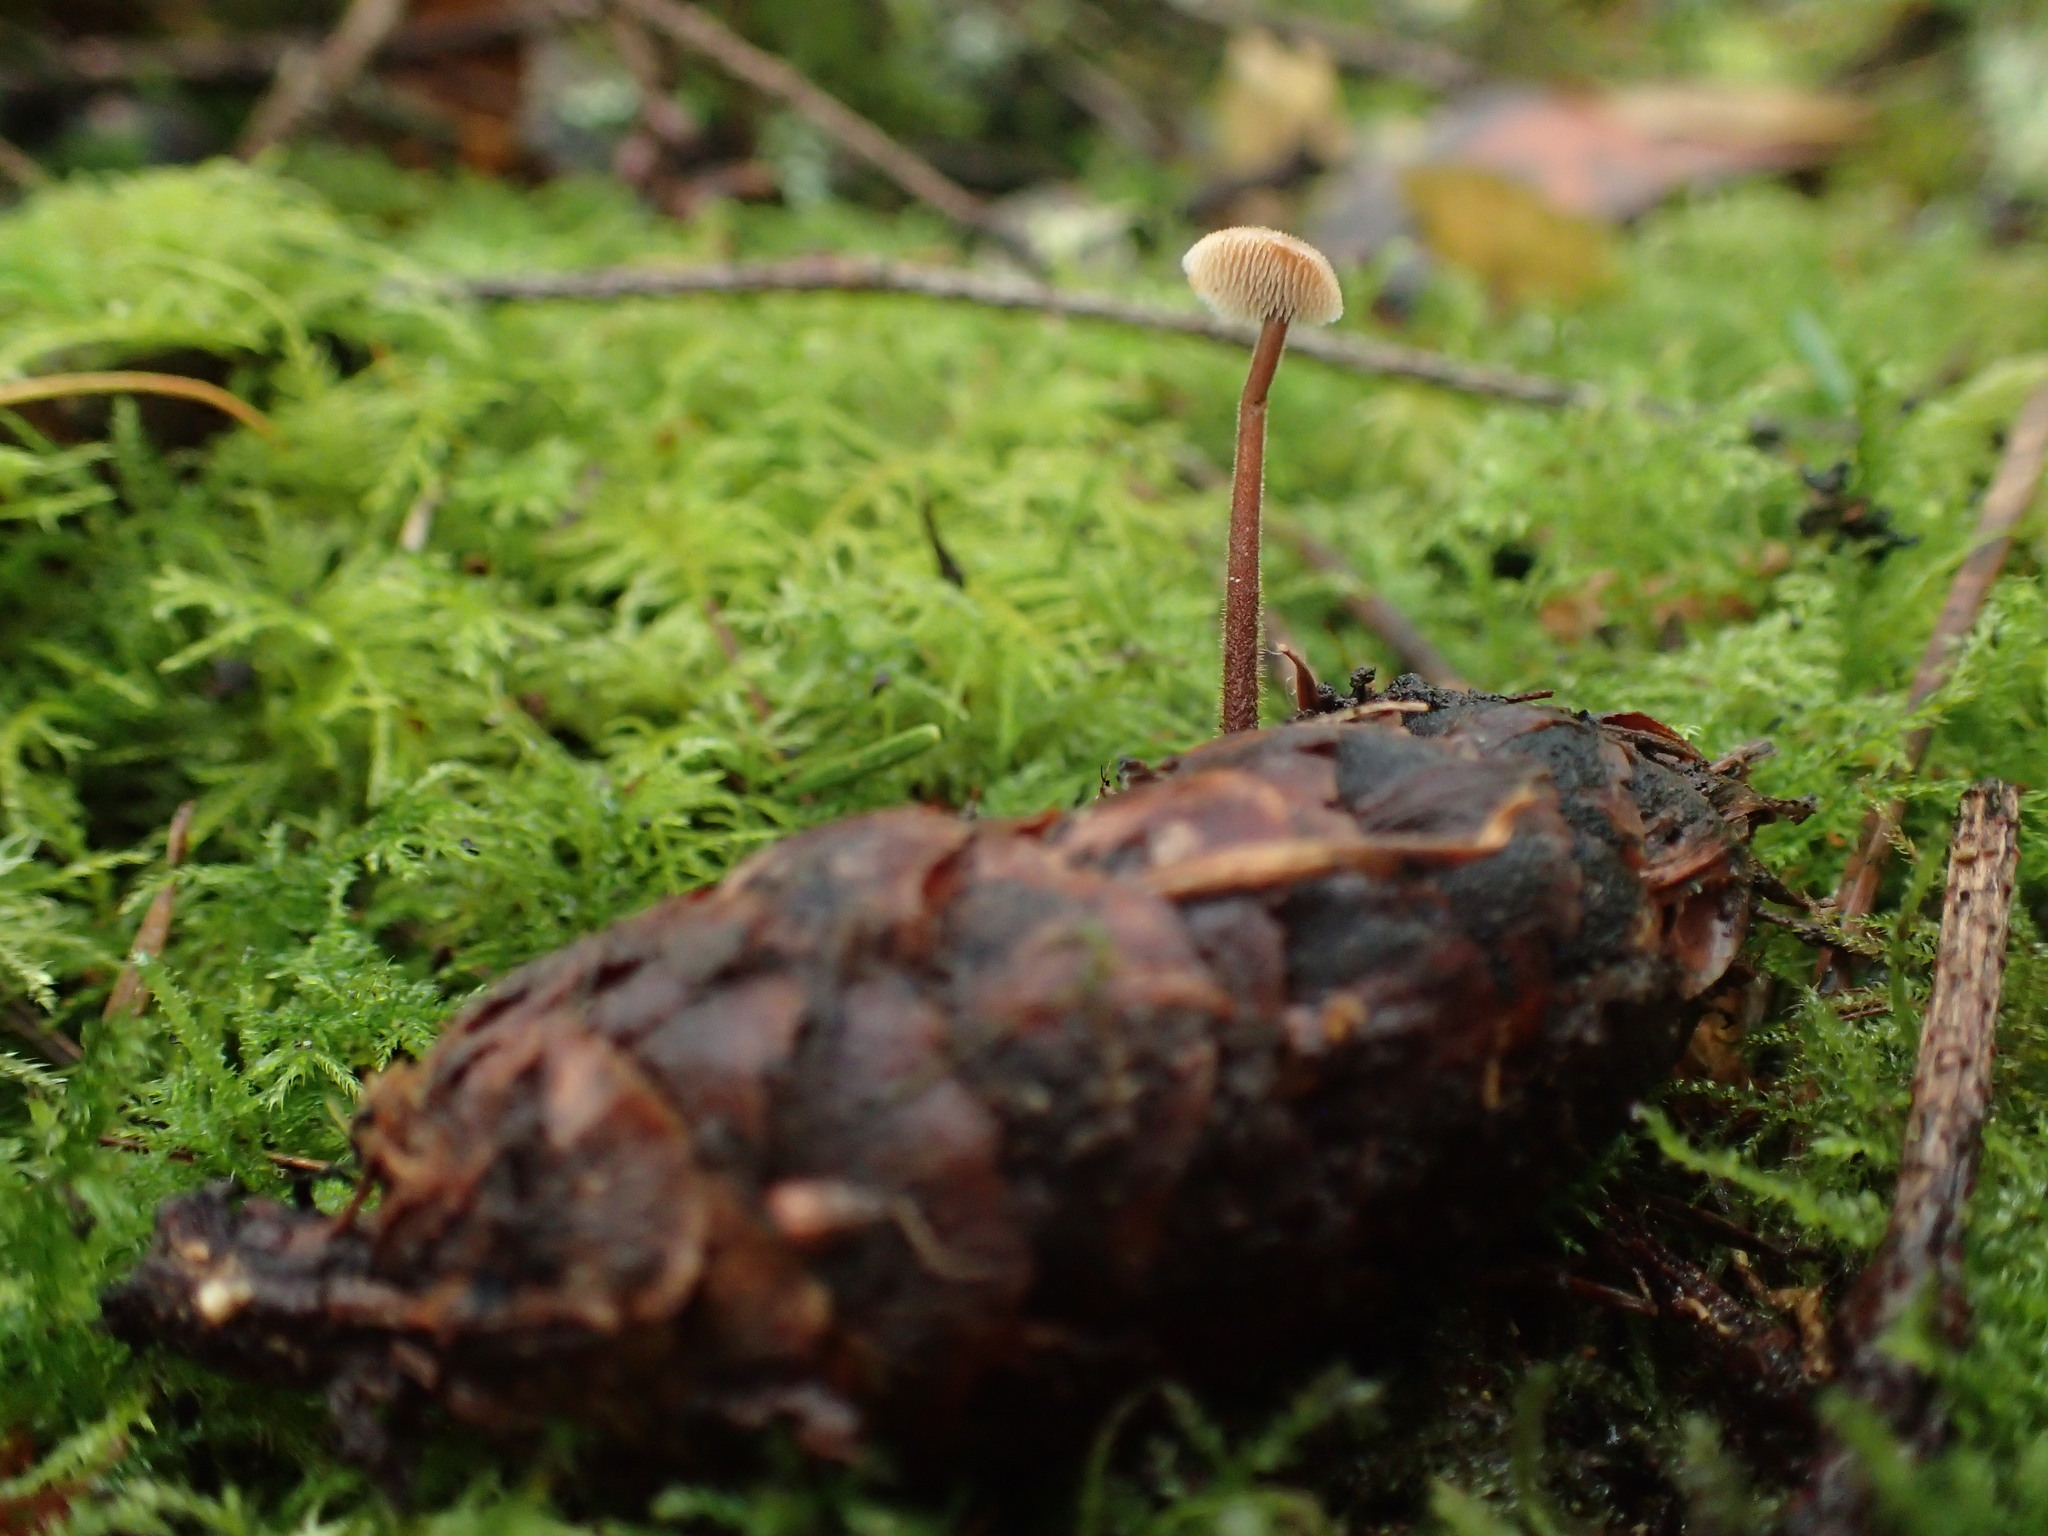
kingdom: Fungi
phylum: Basidiomycota
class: Agaricomycetes
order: Russulales
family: Auriscalpiaceae
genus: Auriscalpium
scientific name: Auriscalpium vulgare
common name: Earpick fungus
